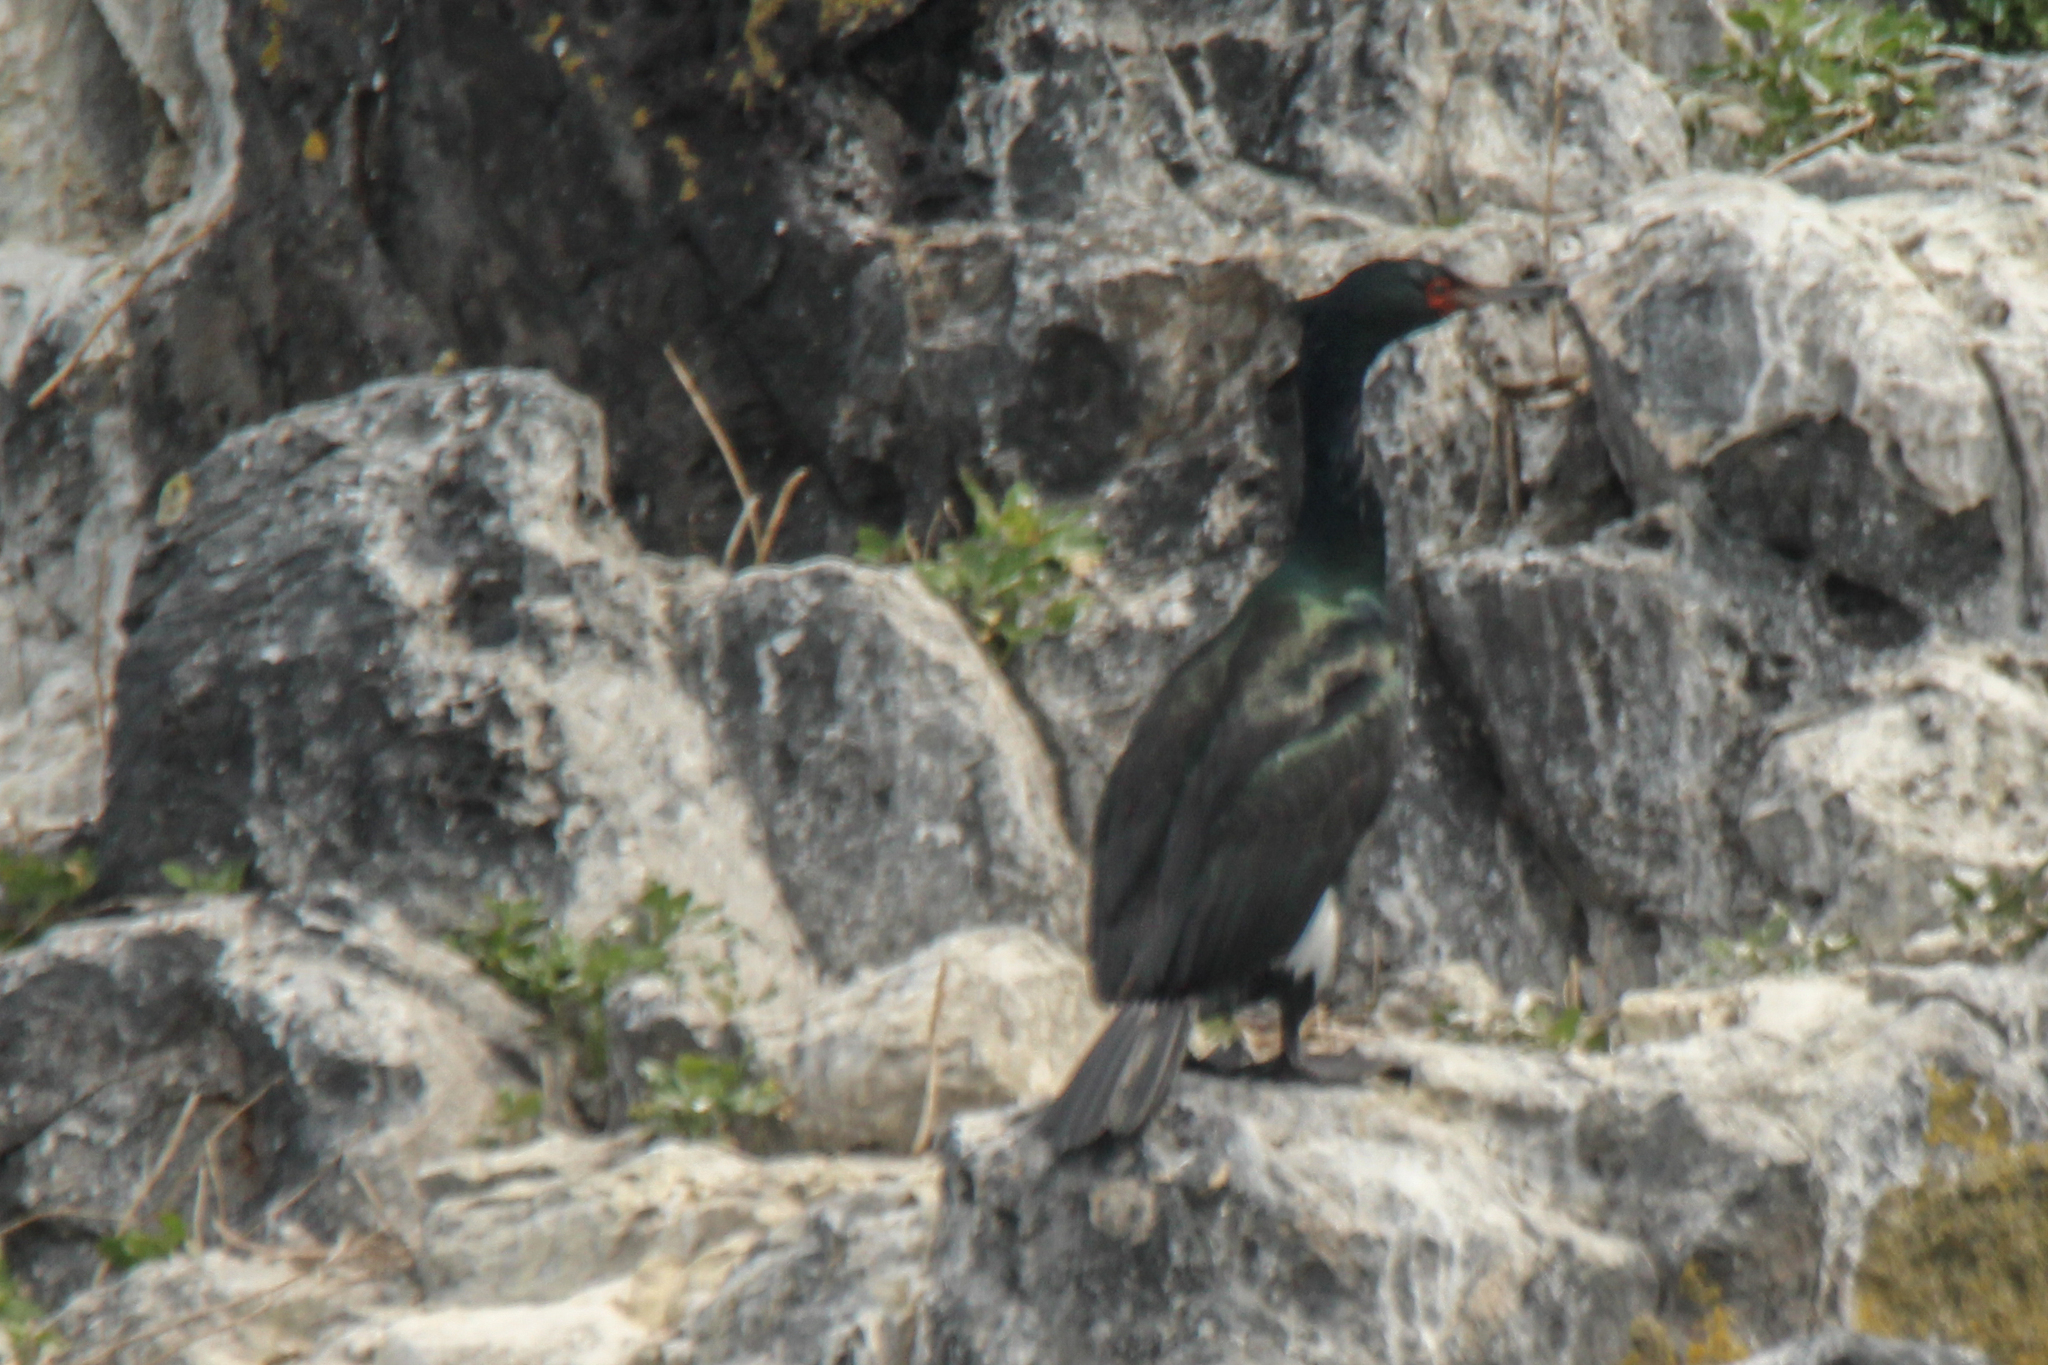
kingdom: Animalia
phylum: Chordata
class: Aves
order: Suliformes
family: Phalacrocoracidae
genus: Phalacrocorax
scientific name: Phalacrocorax pelagicus
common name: Pelagic cormorant
